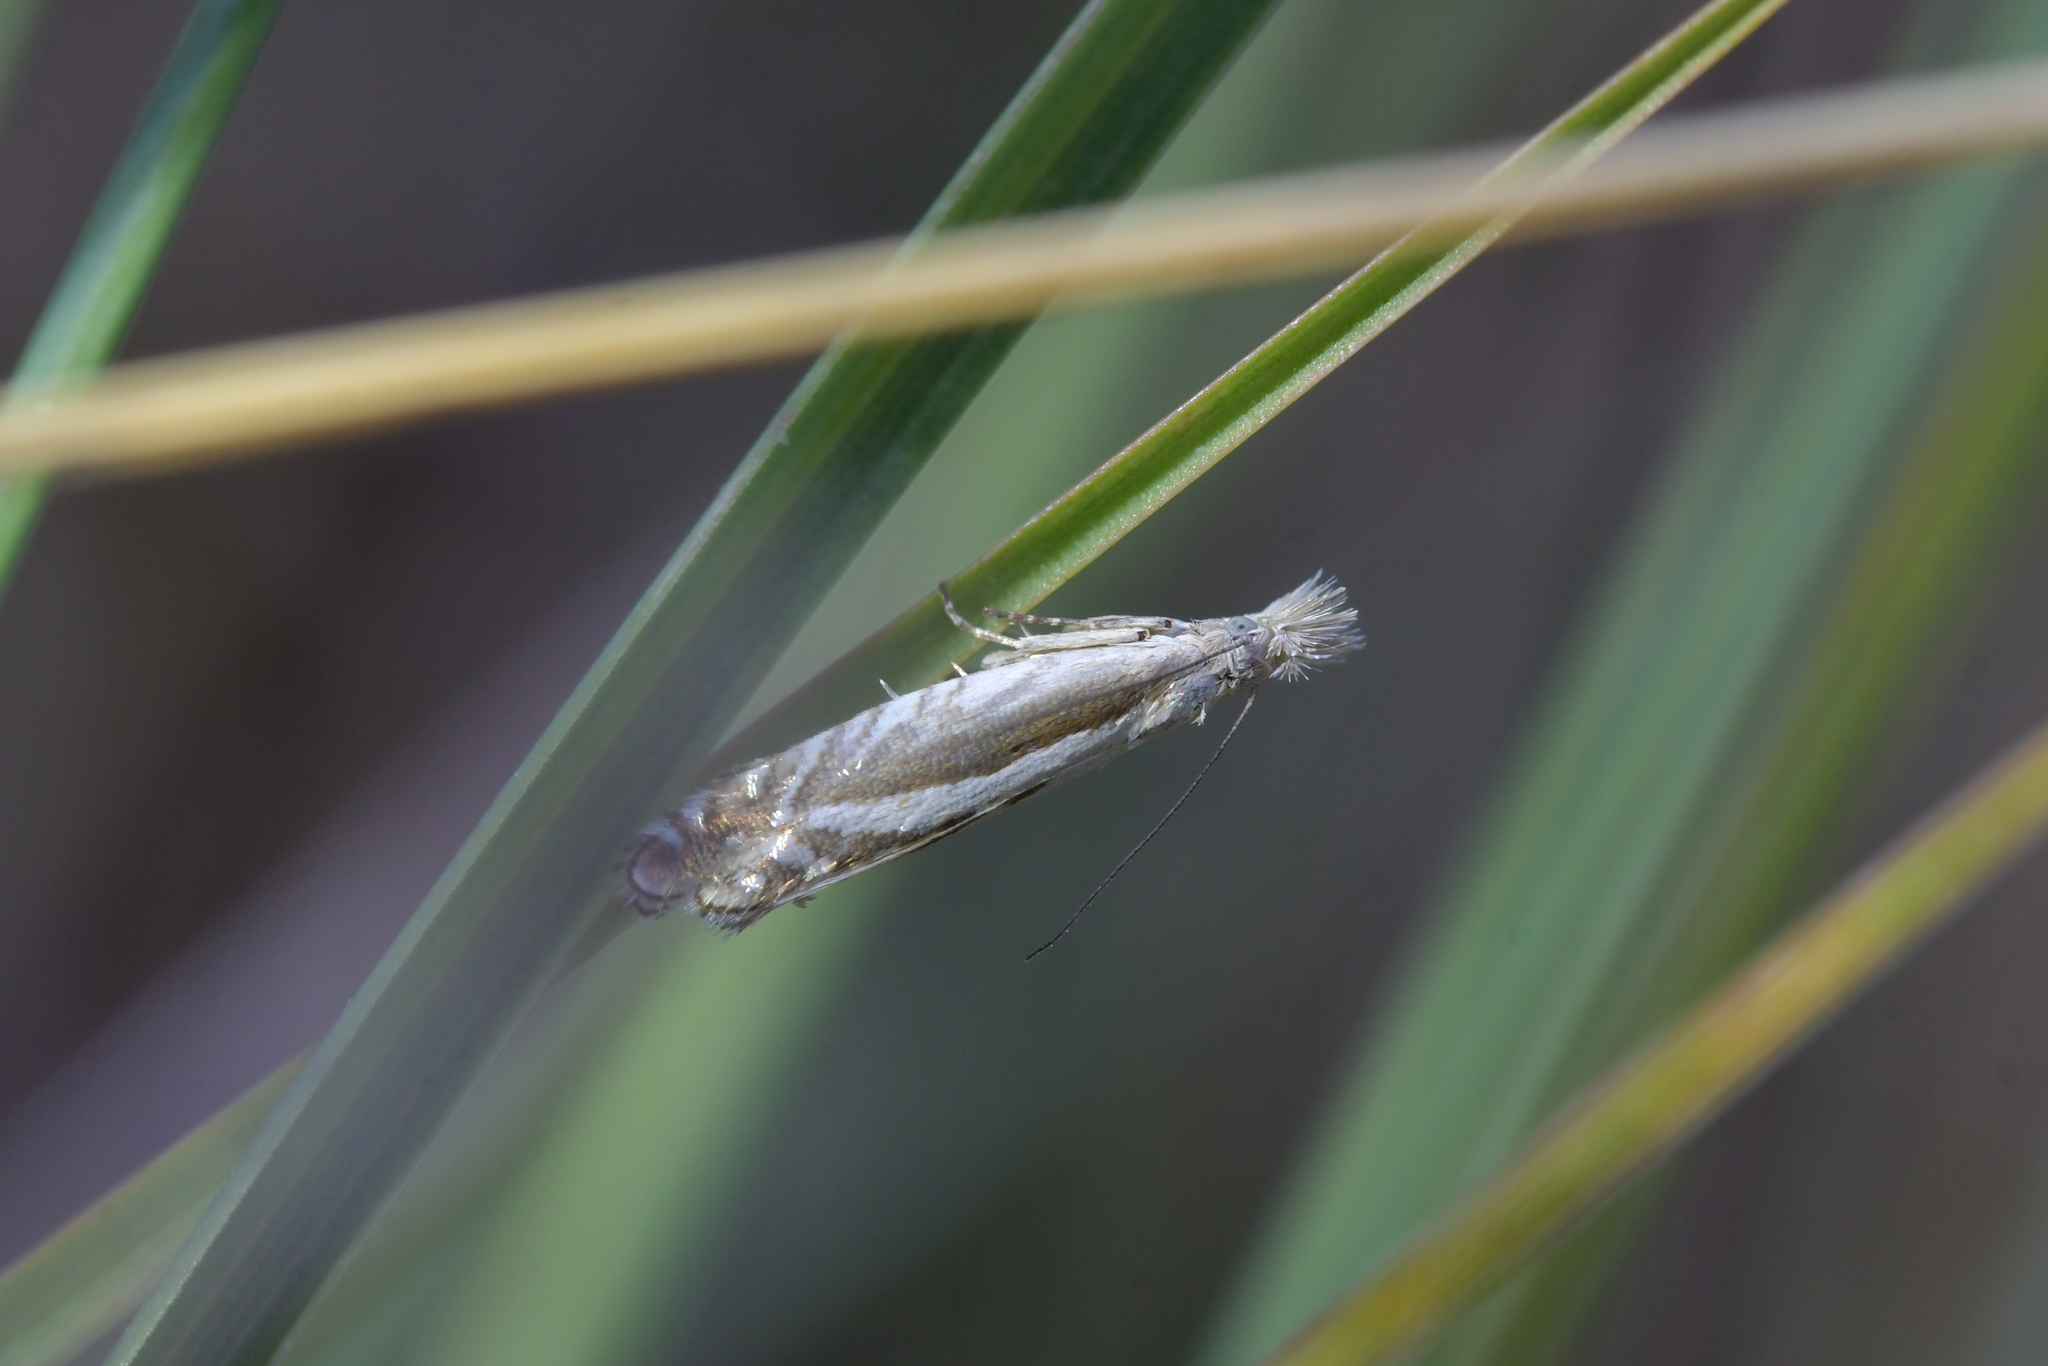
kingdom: Animalia
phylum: Arthropoda
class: Insecta
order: Lepidoptera
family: Glyphipterigidae
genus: Glyphipterix
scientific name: Glyphipterix oxymachaera
